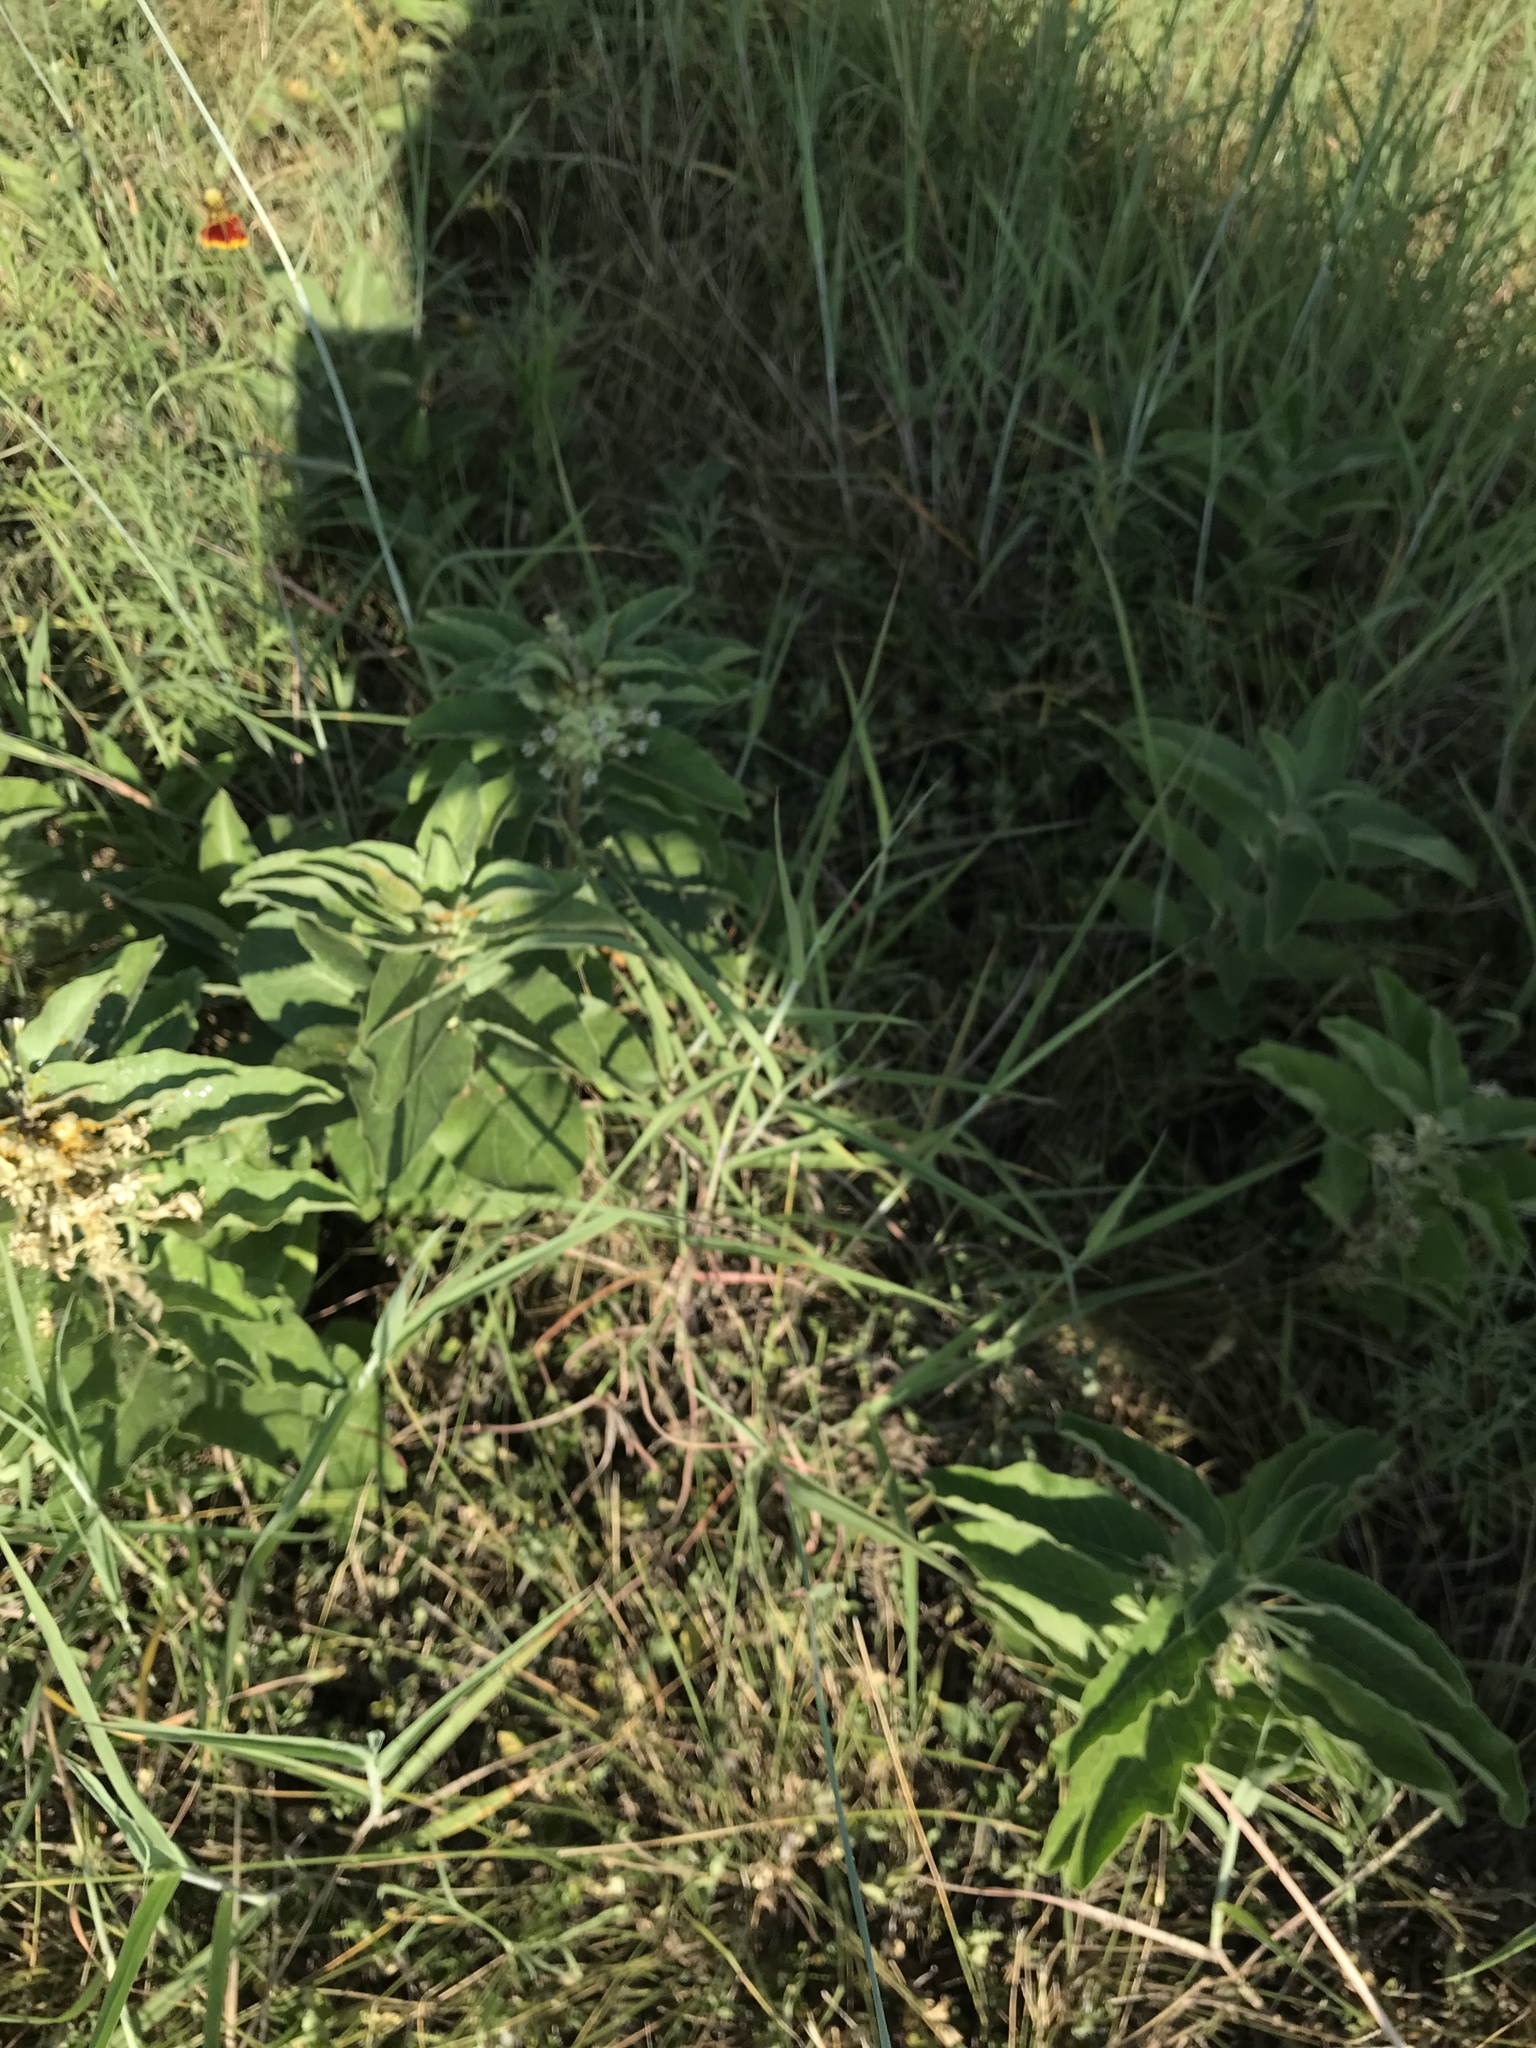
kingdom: Plantae
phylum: Tracheophyta
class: Magnoliopsida
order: Gentianales
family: Apocynaceae
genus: Asclepias
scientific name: Asclepias oenotheroides
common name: Zizotes milkweed
